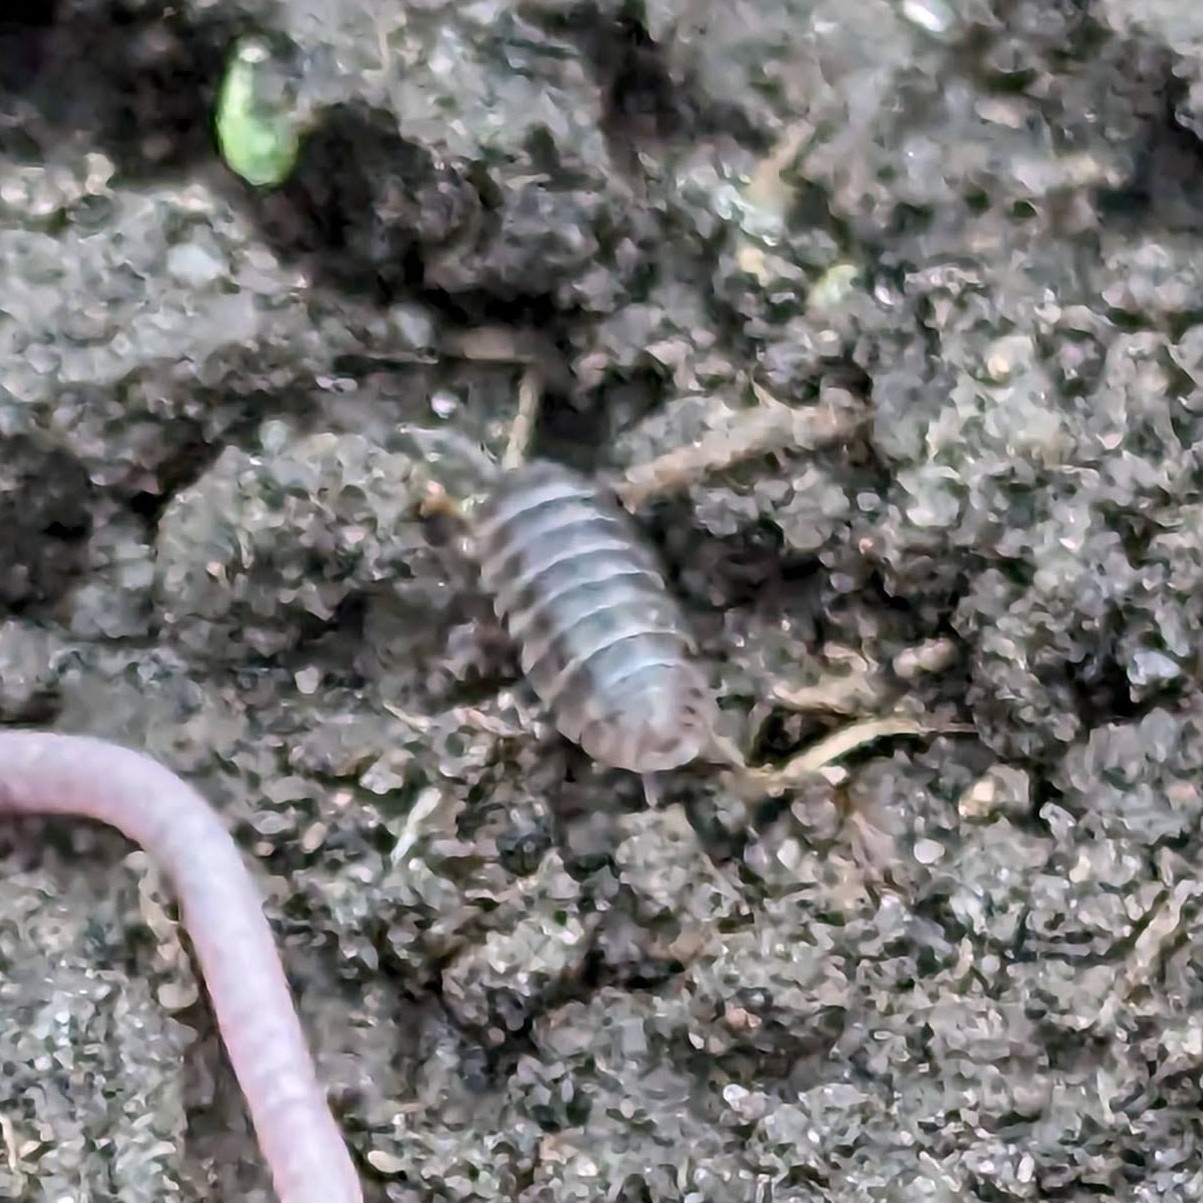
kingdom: Animalia
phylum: Arthropoda
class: Malacostraca
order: Isopoda
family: Armadillidiidae
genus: Armadillidium
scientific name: Armadillidium vulgare
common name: Common pill woodlouse
